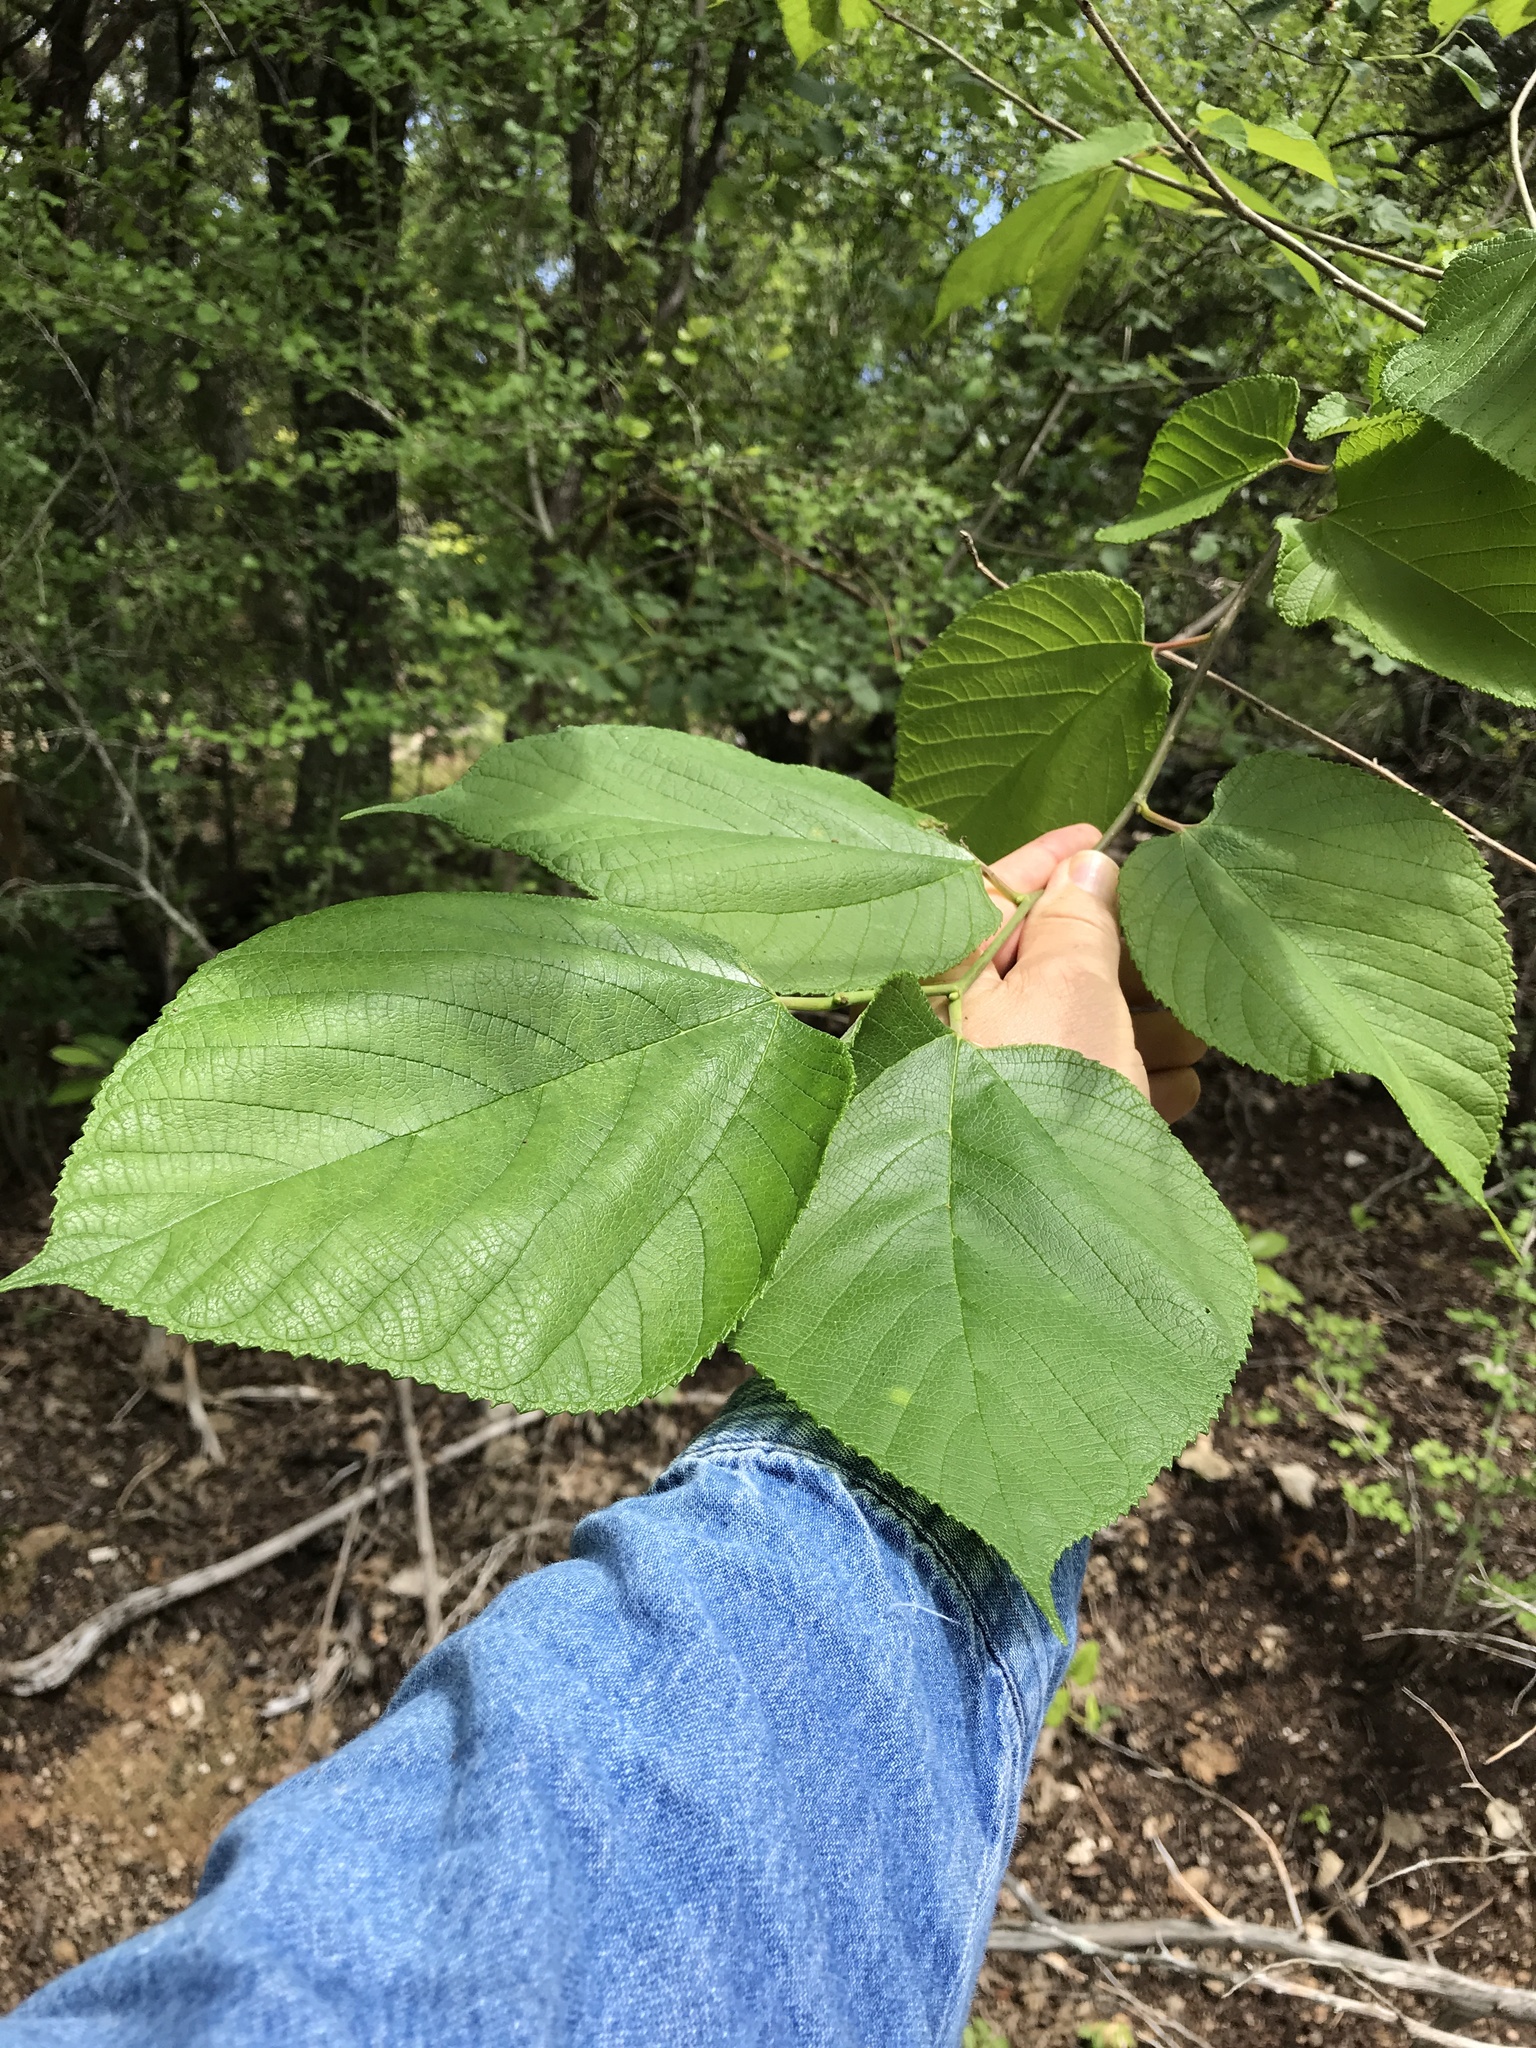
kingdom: Plantae
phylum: Tracheophyta
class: Magnoliopsida
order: Rosales
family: Moraceae
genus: Morus
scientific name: Morus rubra
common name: Red mulberry
